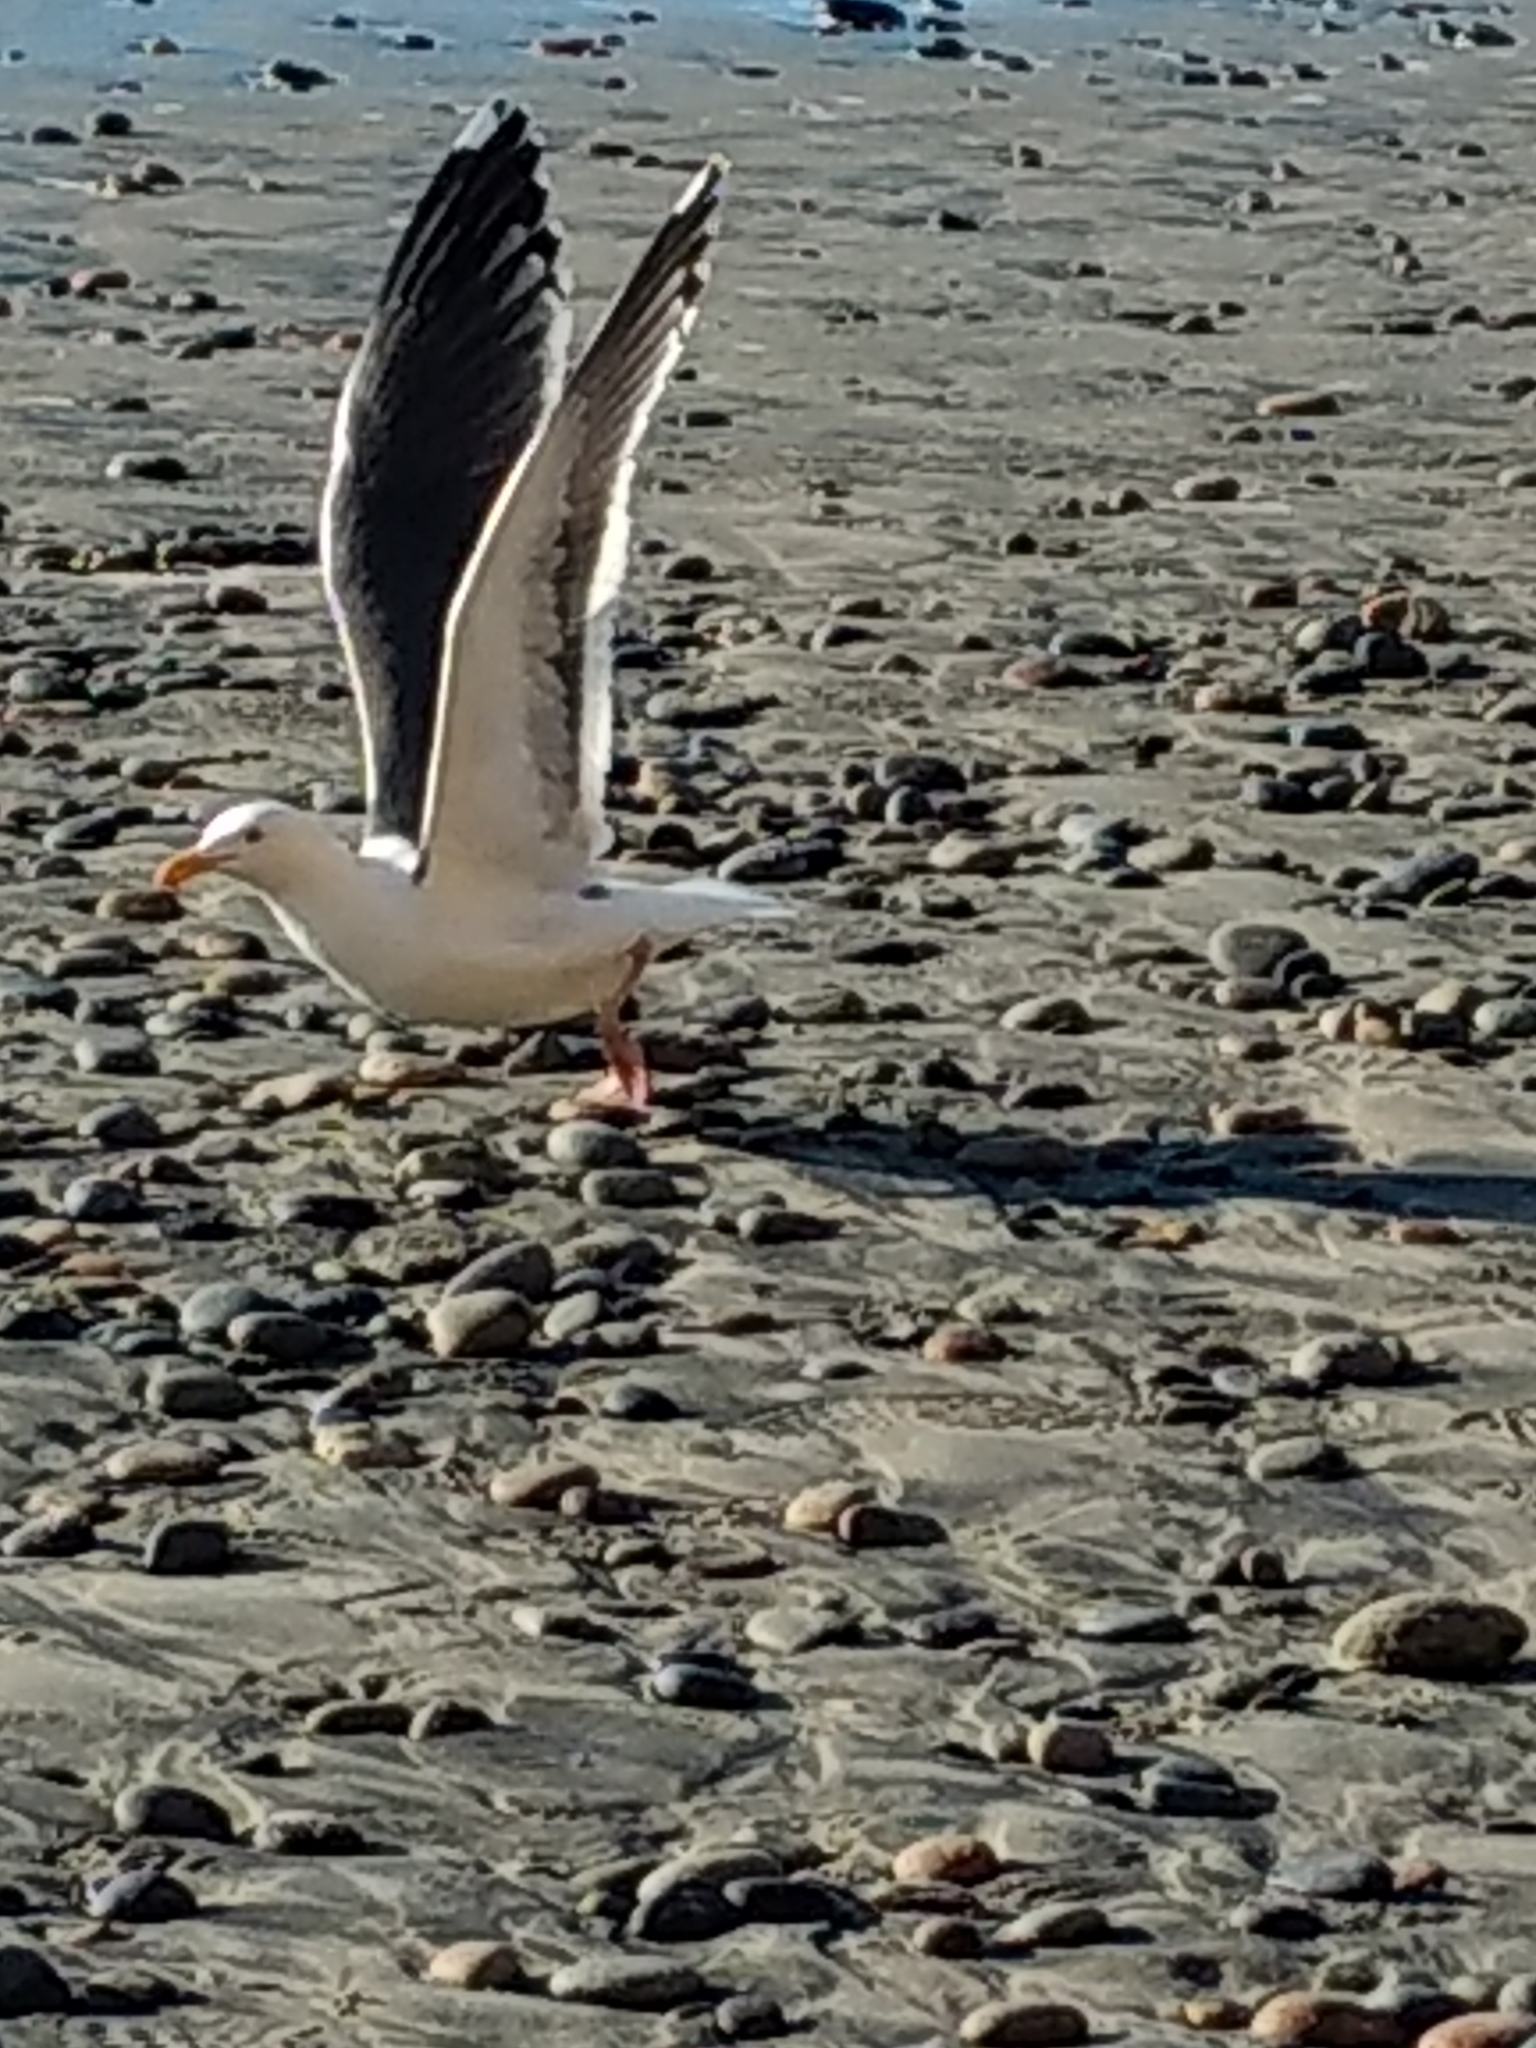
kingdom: Animalia
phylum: Chordata
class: Aves
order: Charadriiformes
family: Laridae
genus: Larus
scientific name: Larus occidentalis
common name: Western gull
